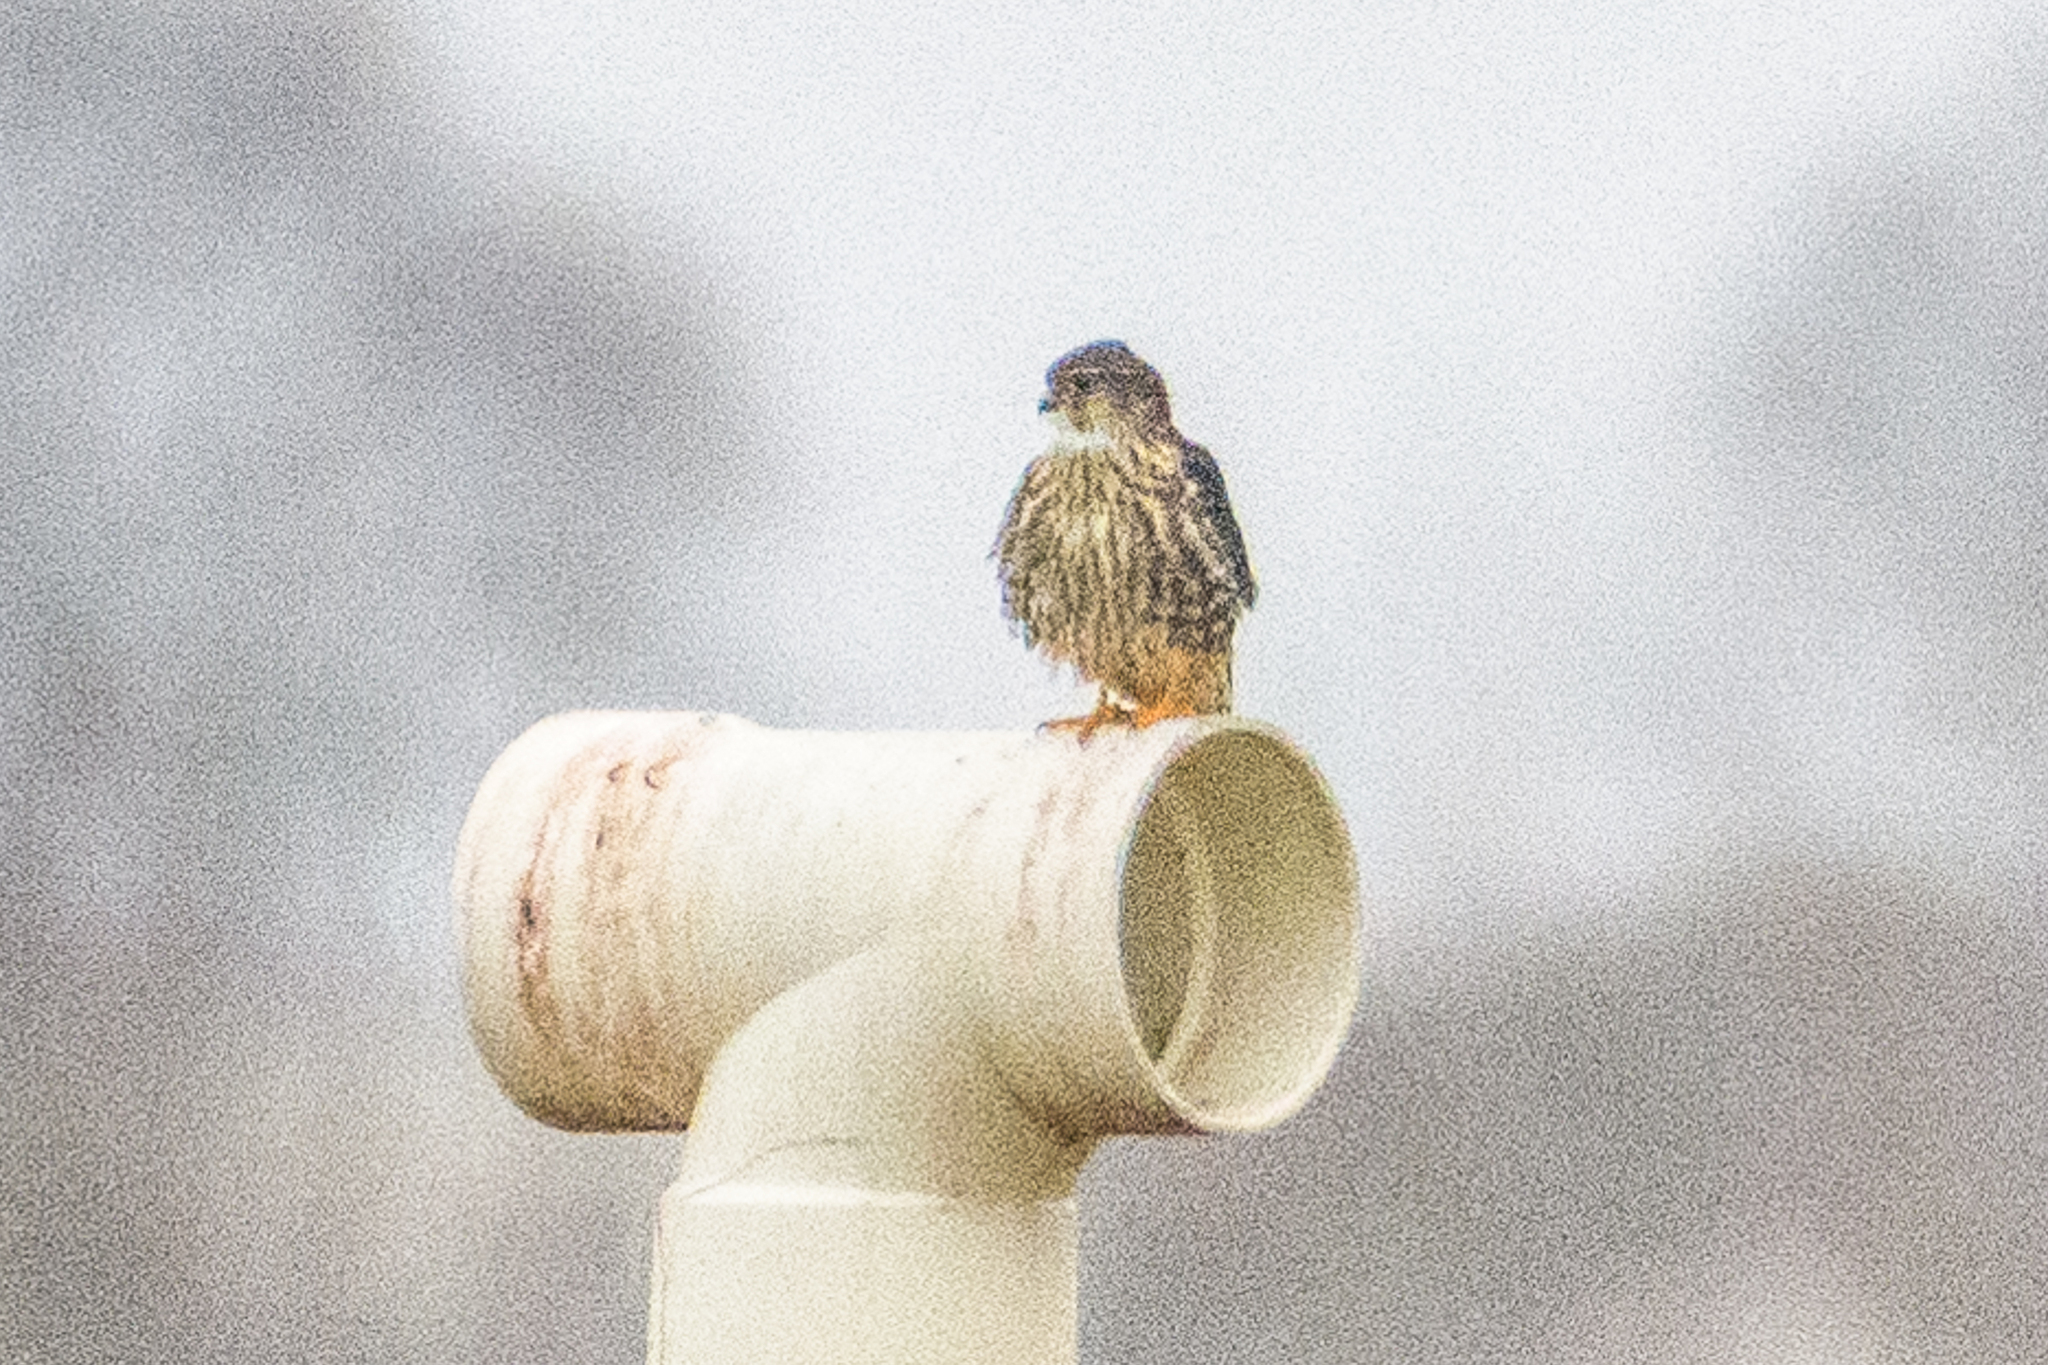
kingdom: Animalia
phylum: Chordata
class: Aves
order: Falconiformes
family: Falconidae
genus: Falco
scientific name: Falco columbarius
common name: Merlin
